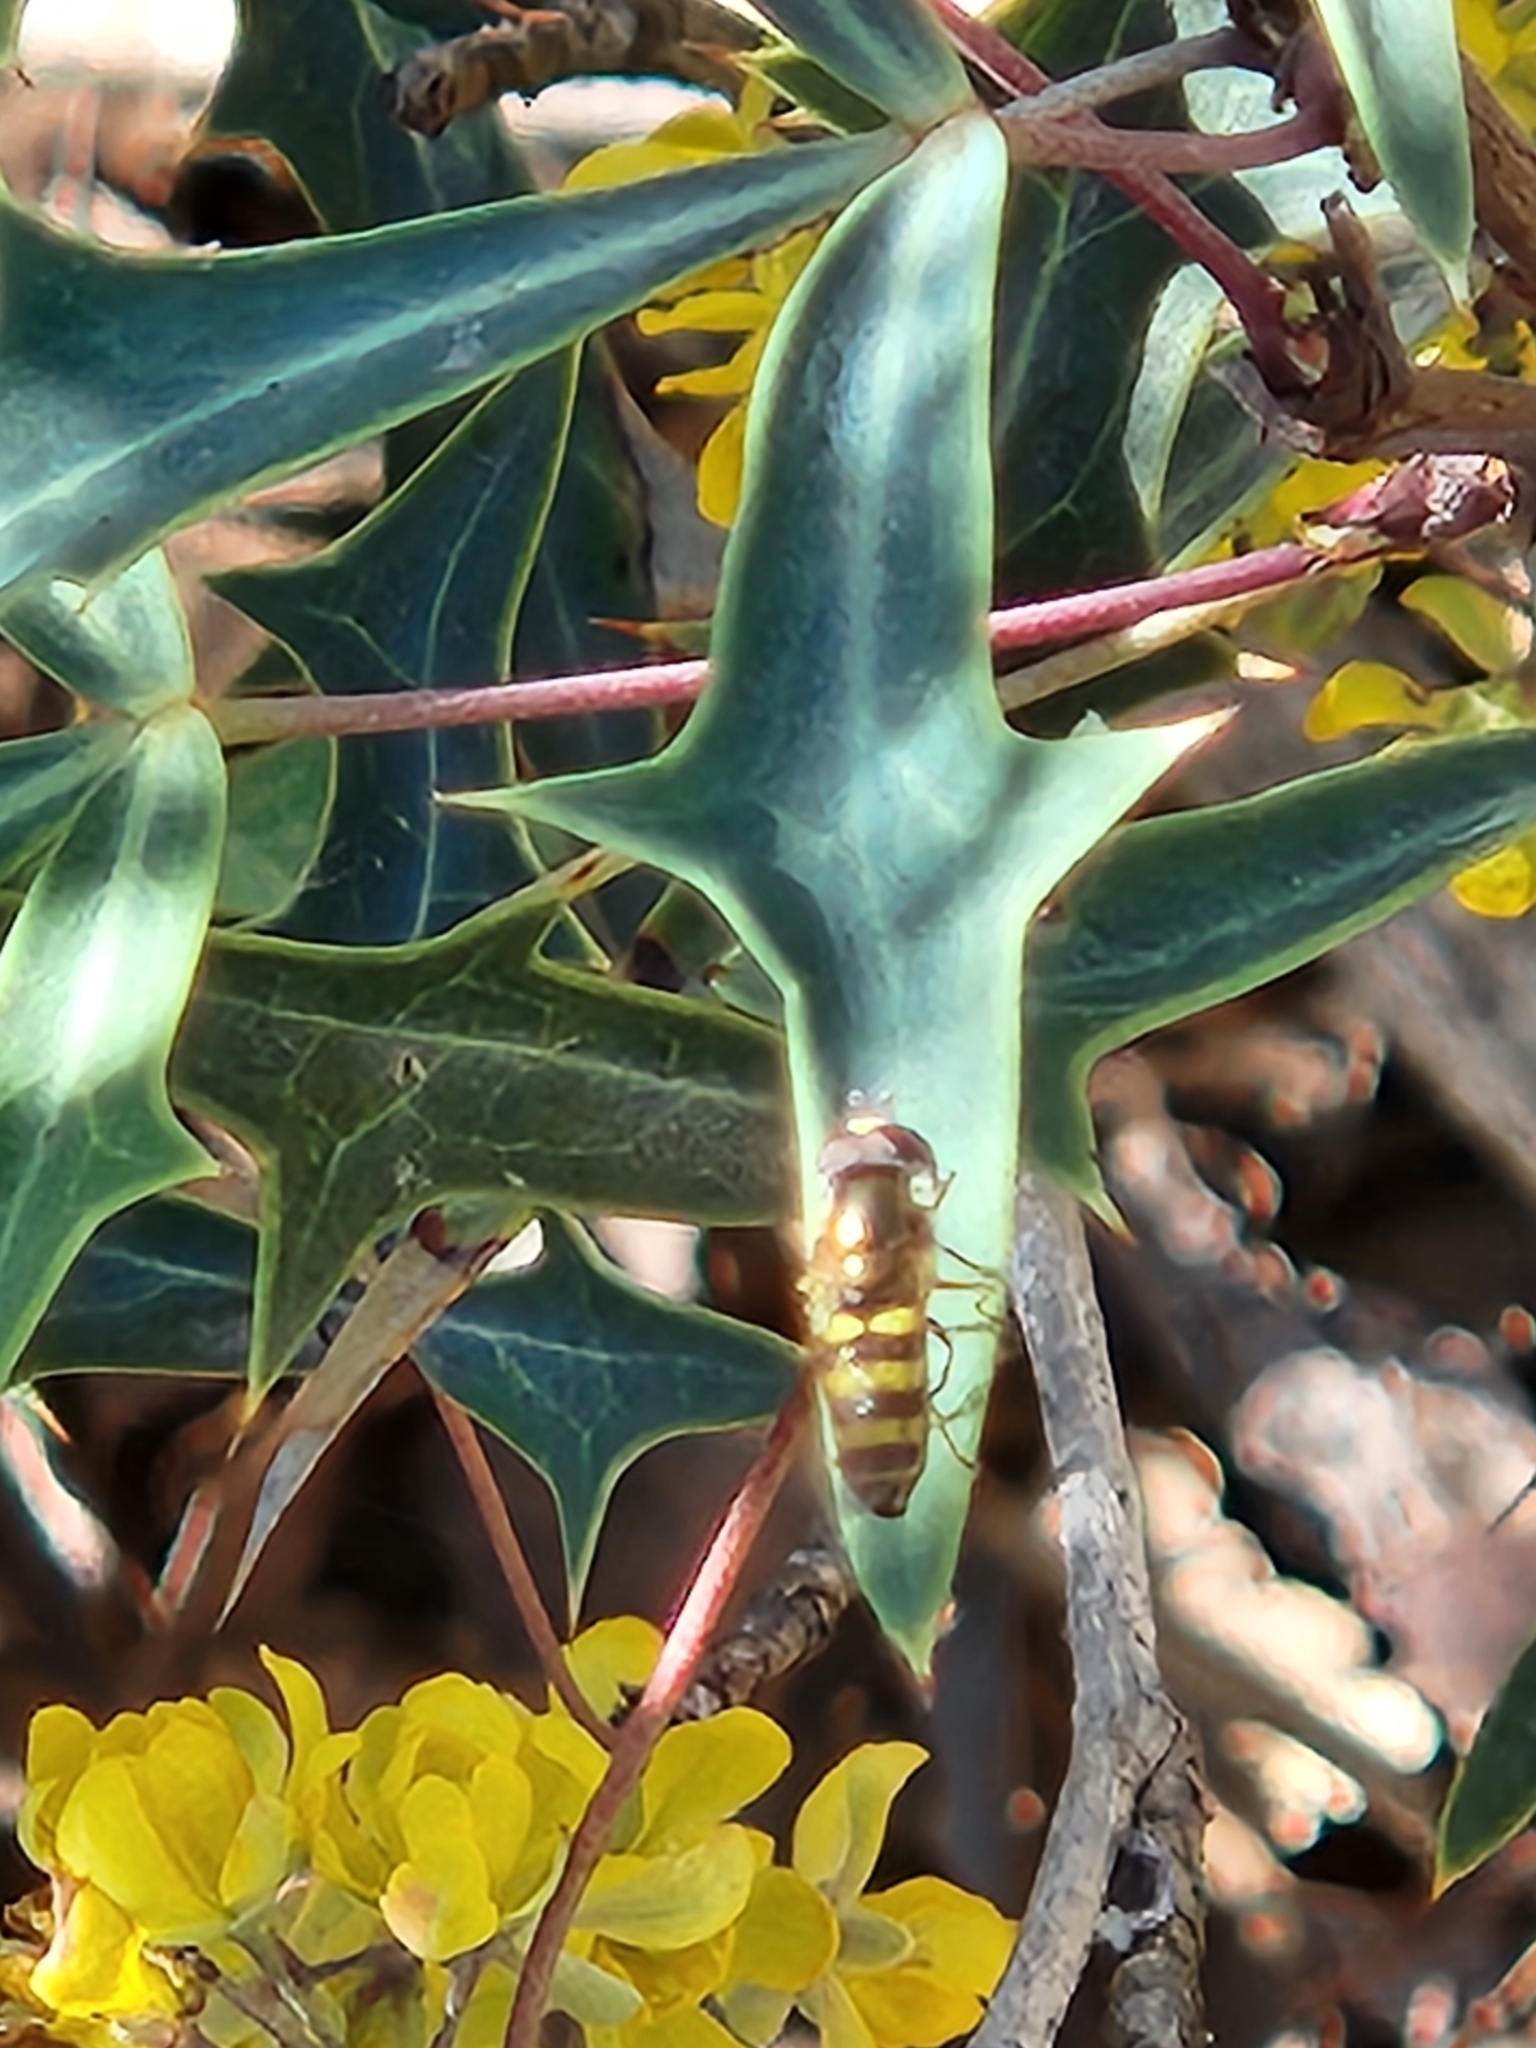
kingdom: Animalia
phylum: Arthropoda
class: Insecta
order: Diptera
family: Syrphidae
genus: Eupeodes
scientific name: Eupeodes
